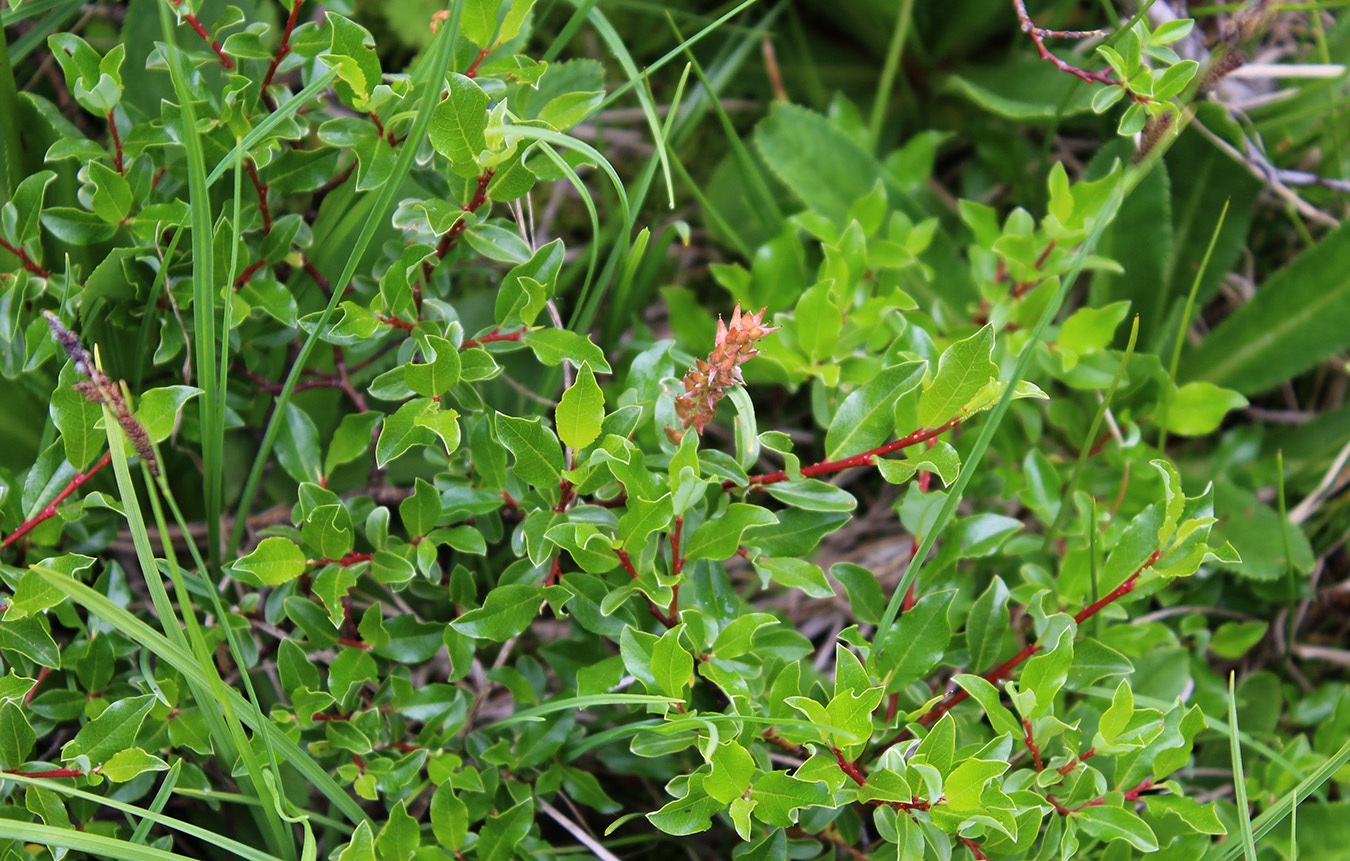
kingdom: Plantae
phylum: Tracheophyta
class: Magnoliopsida
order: Malpighiales
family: Salicaceae
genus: Salix
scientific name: Salix kazbekensis
